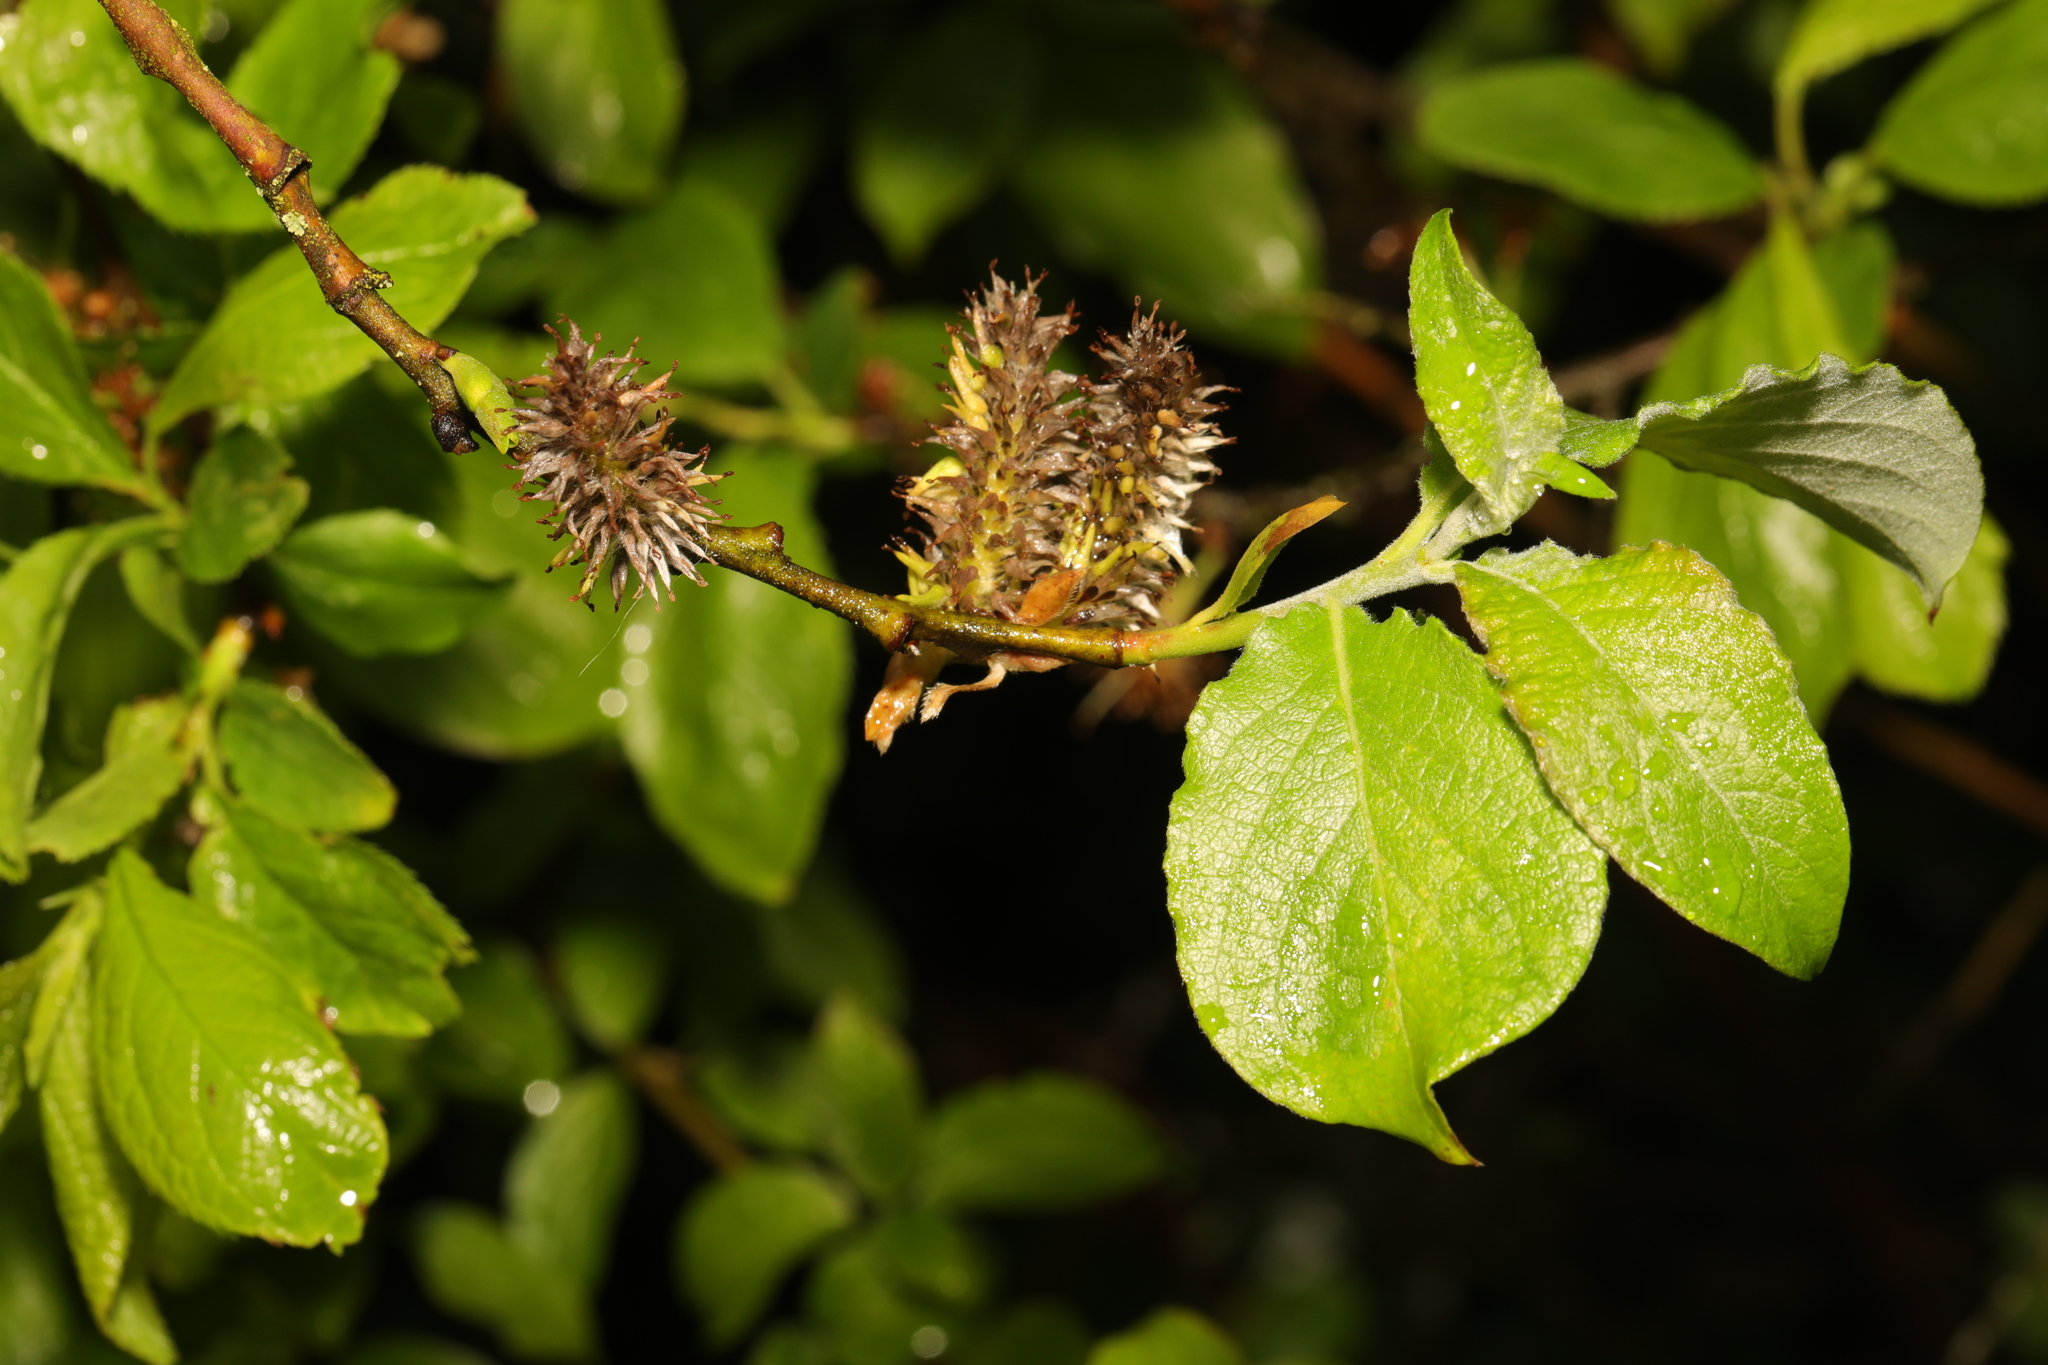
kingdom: Plantae
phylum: Tracheophyta
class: Magnoliopsida
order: Malpighiales
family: Salicaceae
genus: Salix
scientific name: Salix caprea
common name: Goat willow
